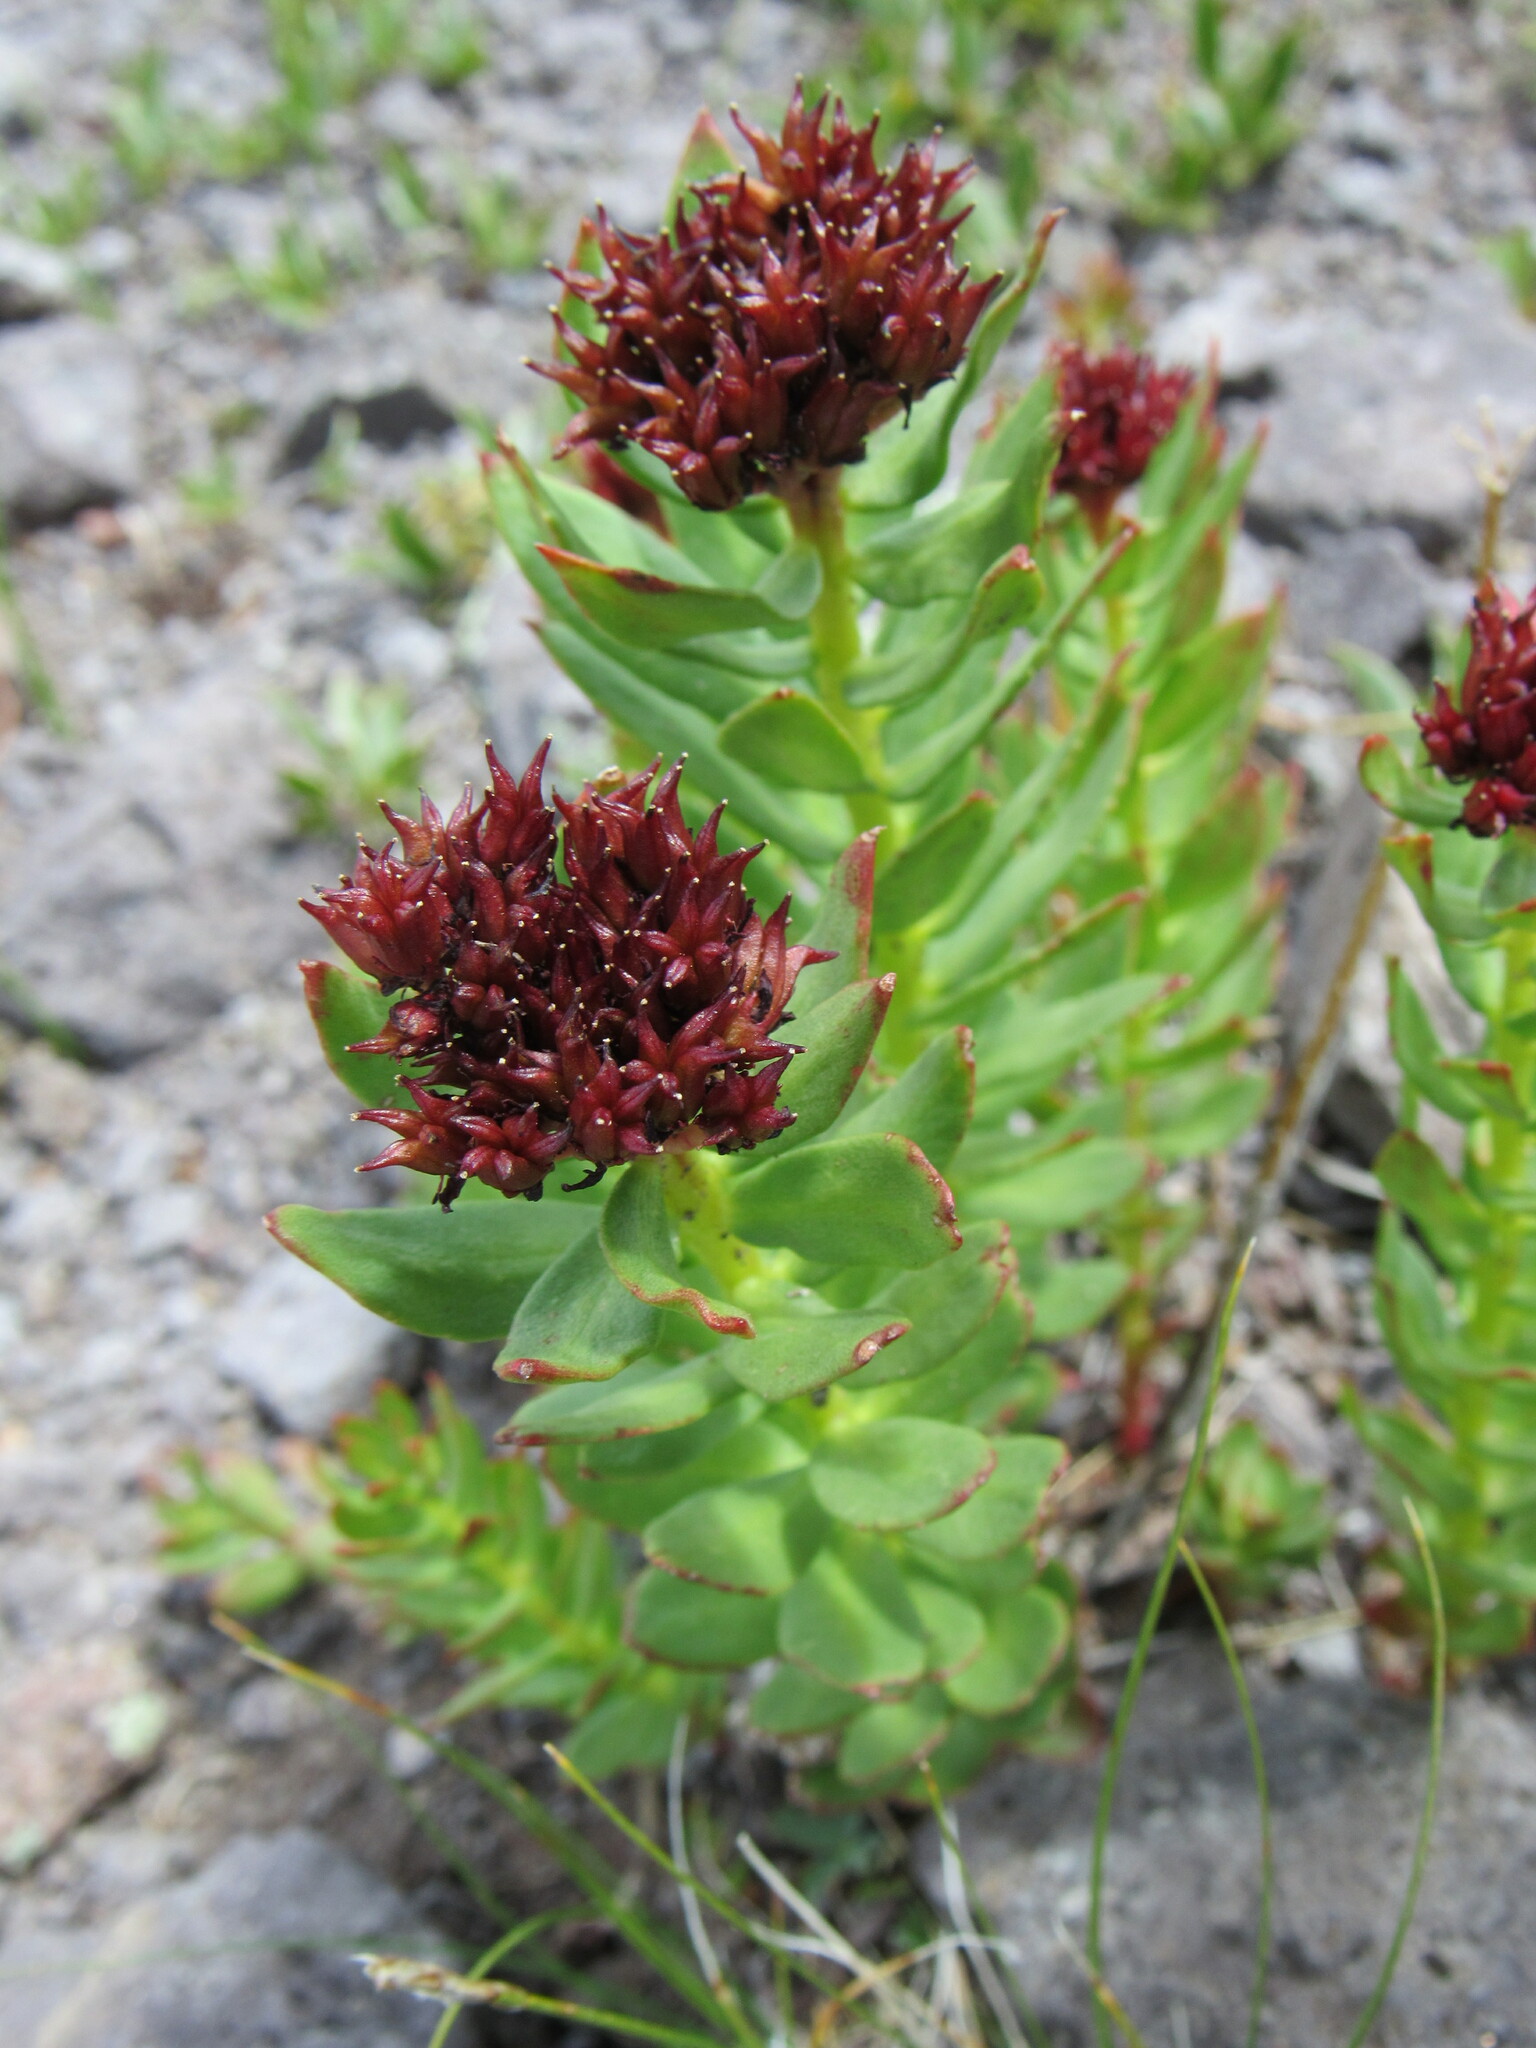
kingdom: Plantae
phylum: Tracheophyta
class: Magnoliopsida
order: Saxifragales
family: Crassulaceae
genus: Rhodiola
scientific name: Rhodiola integrifolia
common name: Western roseroot
